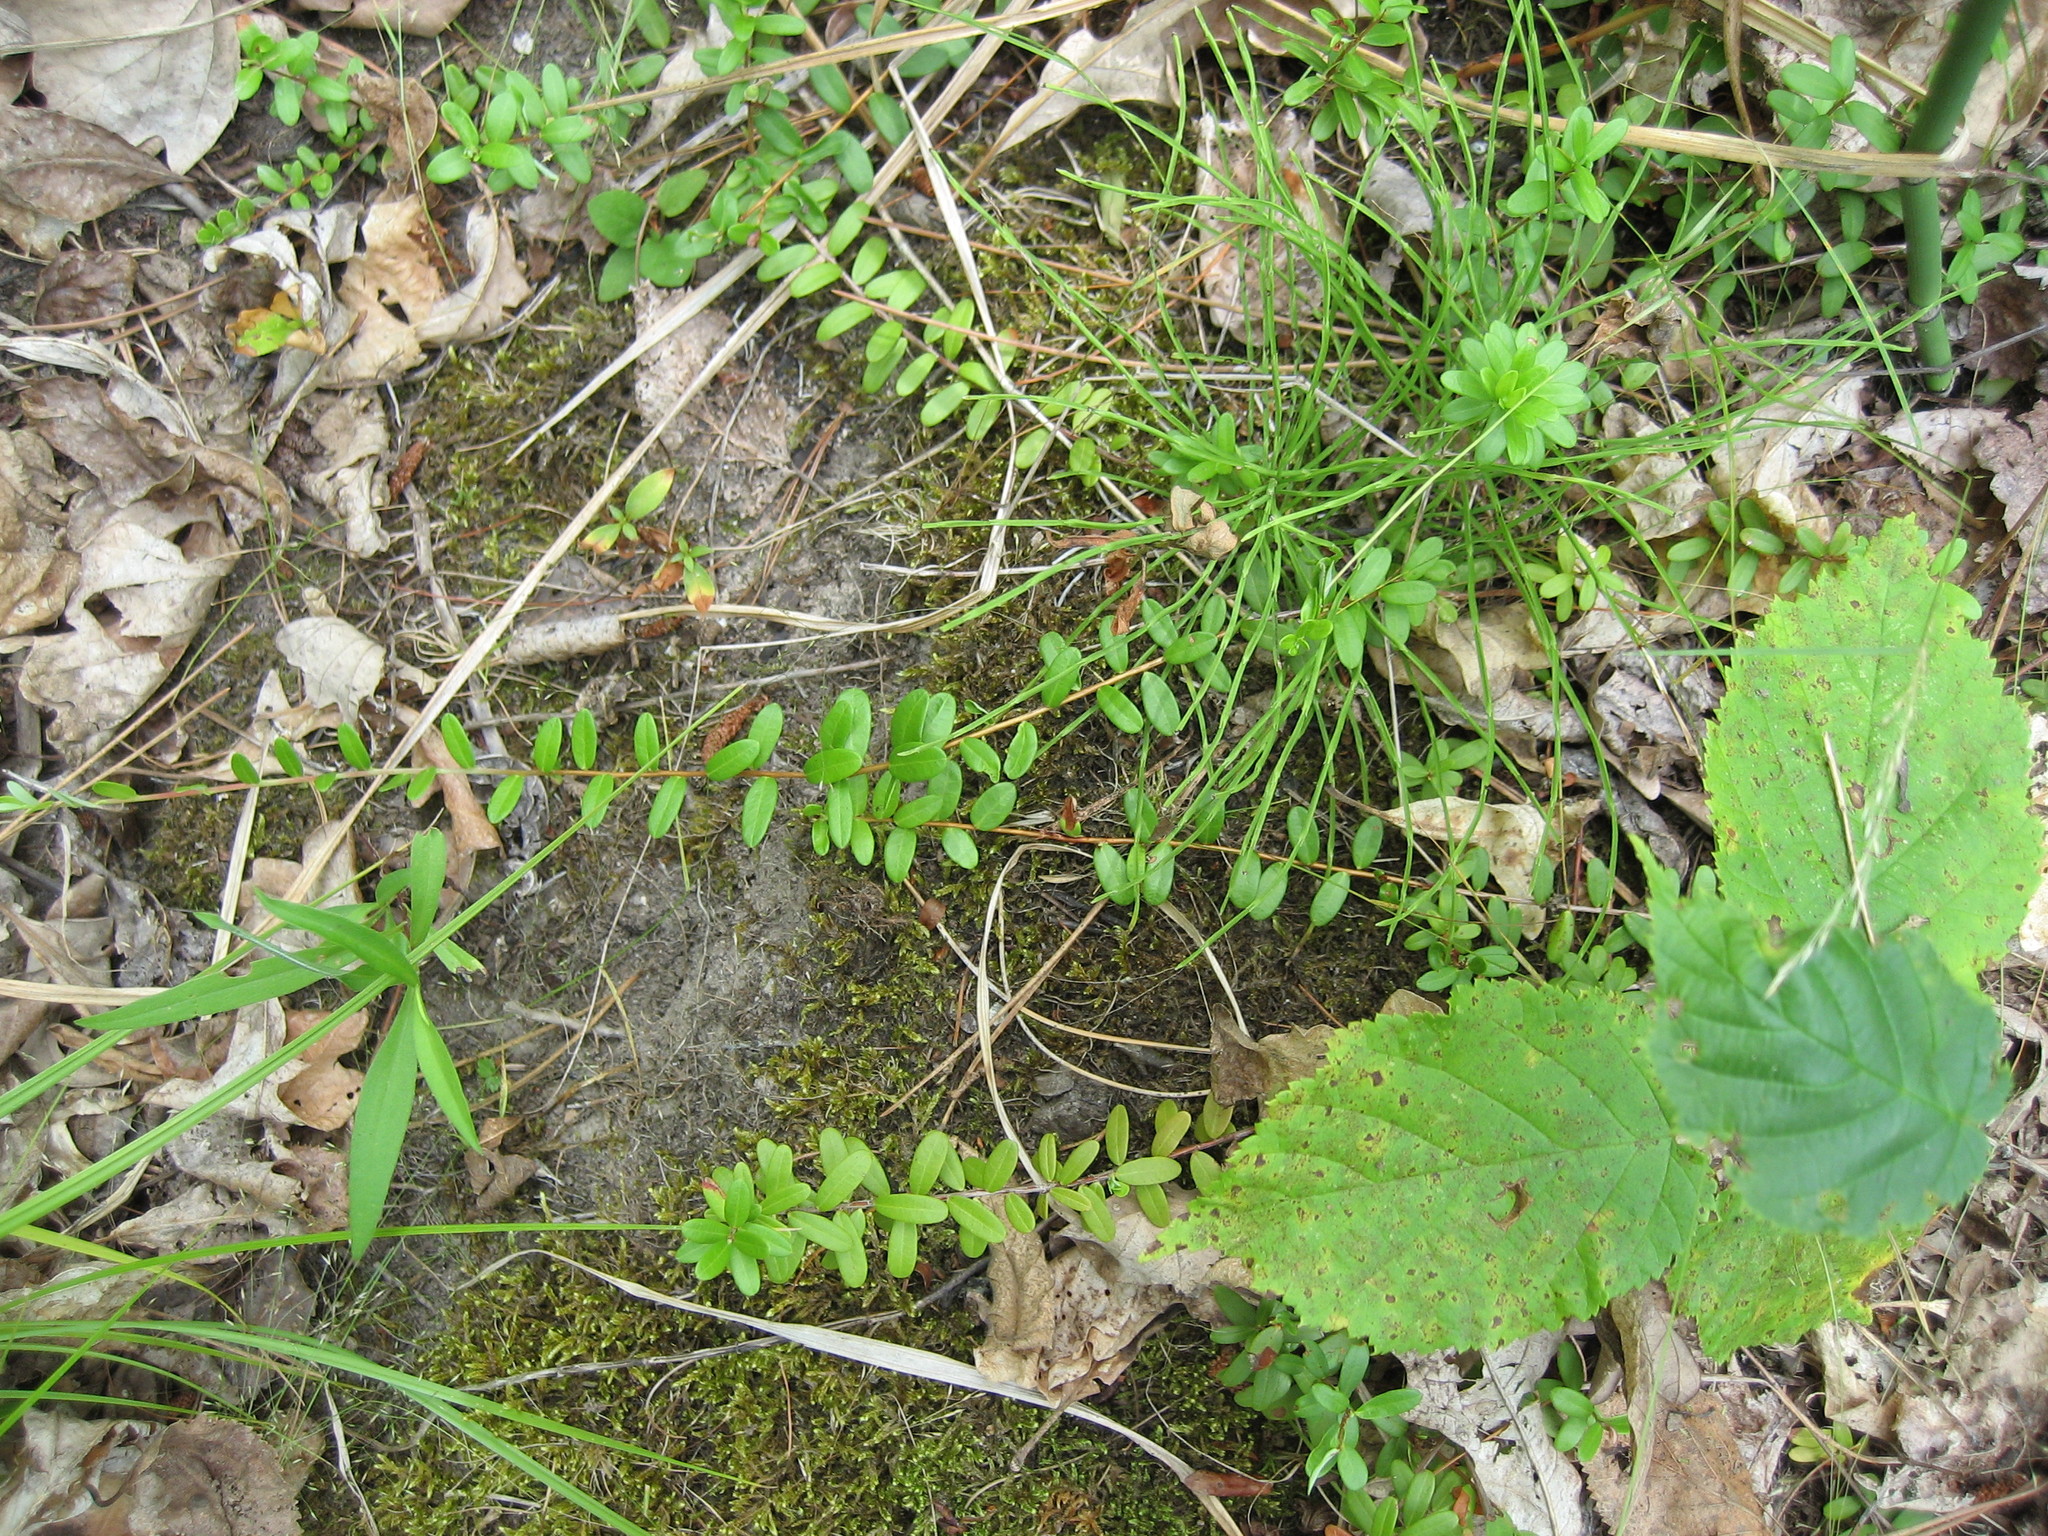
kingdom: Plantae
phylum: Tracheophyta
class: Magnoliopsida
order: Ericales
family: Ericaceae
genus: Vaccinium
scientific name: Vaccinium macrocarpon
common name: American cranberry
